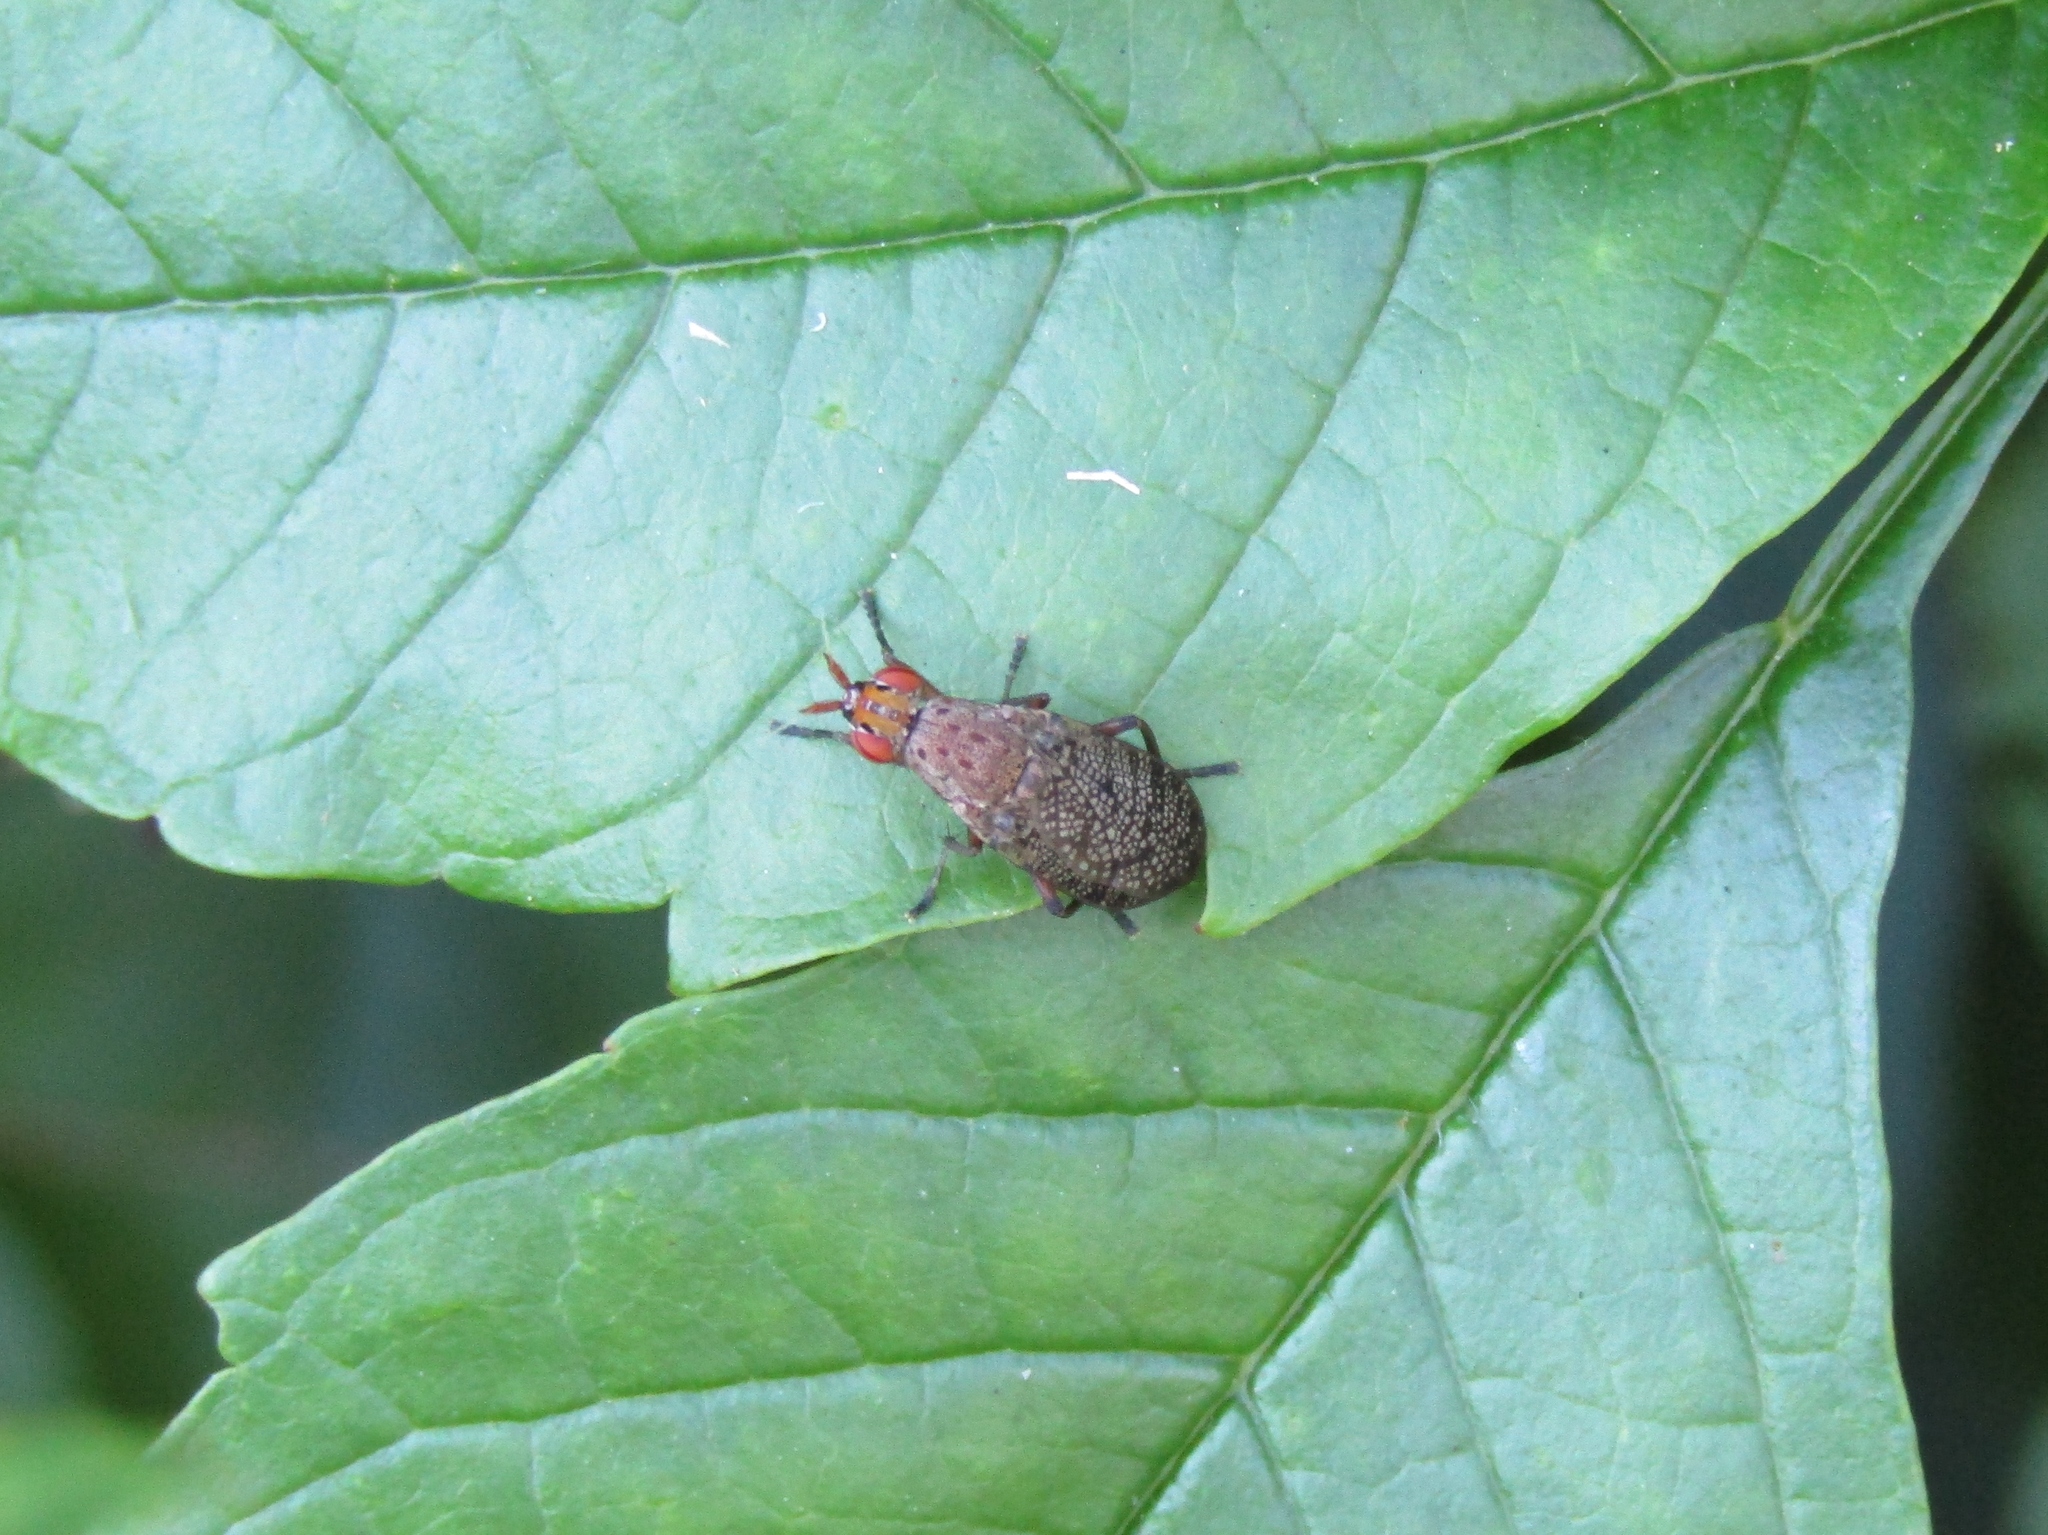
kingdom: Animalia
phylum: Arthropoda
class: Insecta
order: Diptera
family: Sciomyzidae
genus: Euthycera
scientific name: Euthycera flavescens
